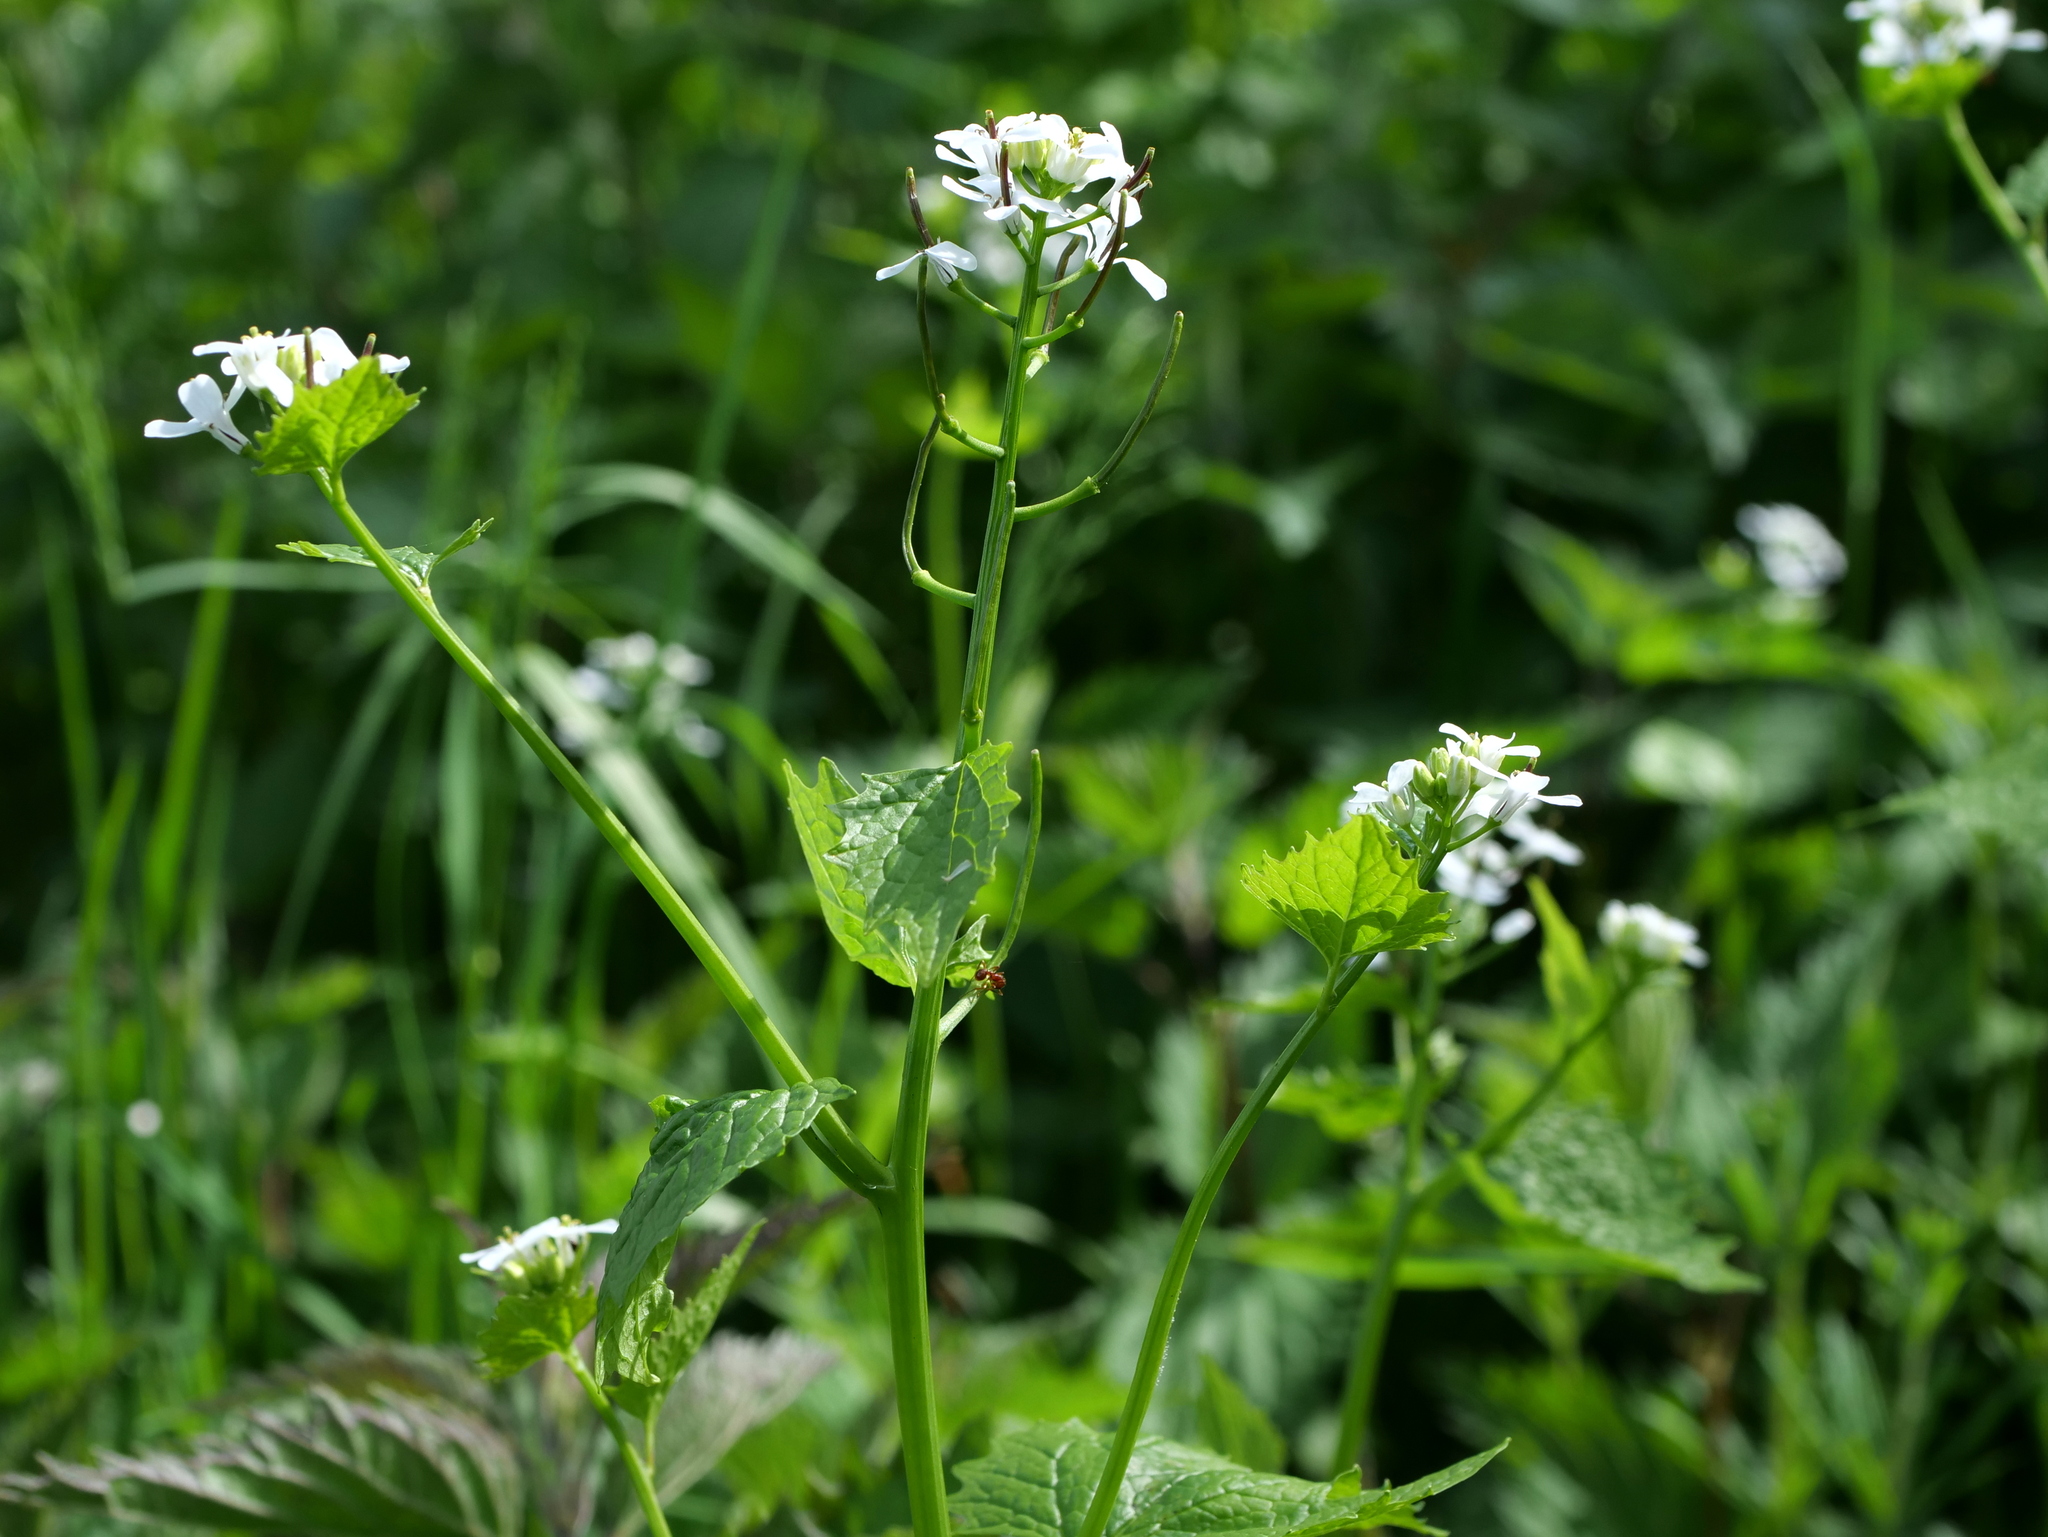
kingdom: Plantae
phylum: Tracheophyta
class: Magnoliopsida
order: Brassicales
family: Brassicaceae
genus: Alliaria
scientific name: Alliaria petiolata
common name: Garlic mustard
